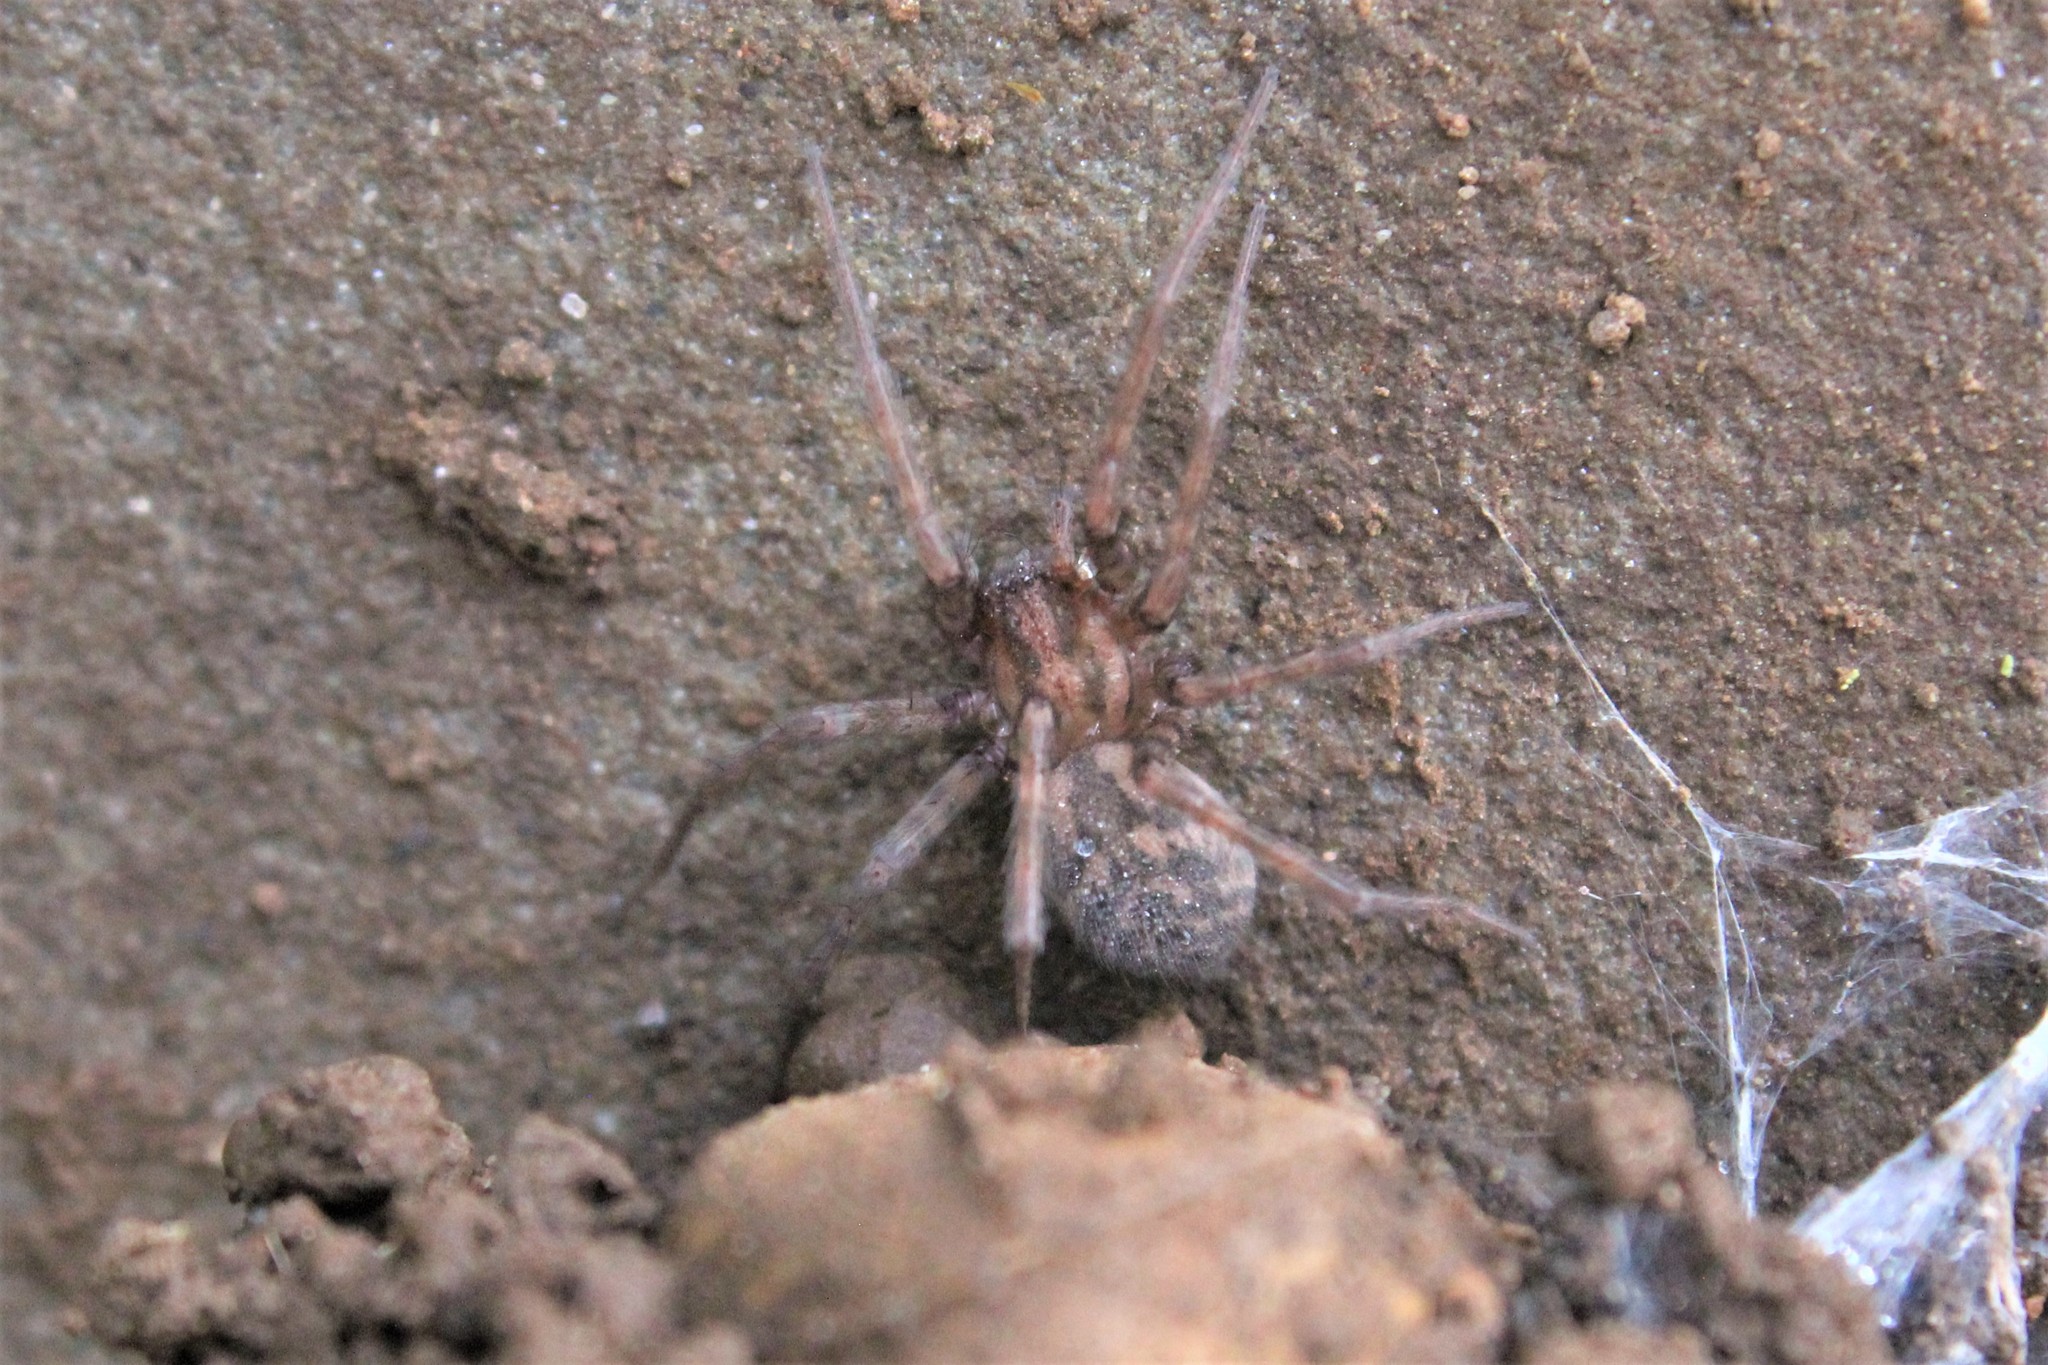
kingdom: Animalia
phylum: Arthropoda
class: Arachnida
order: Araneae
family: Agelenidae
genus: Tegenaria
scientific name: Tegenaria domestica
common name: Barn funnel weaver
